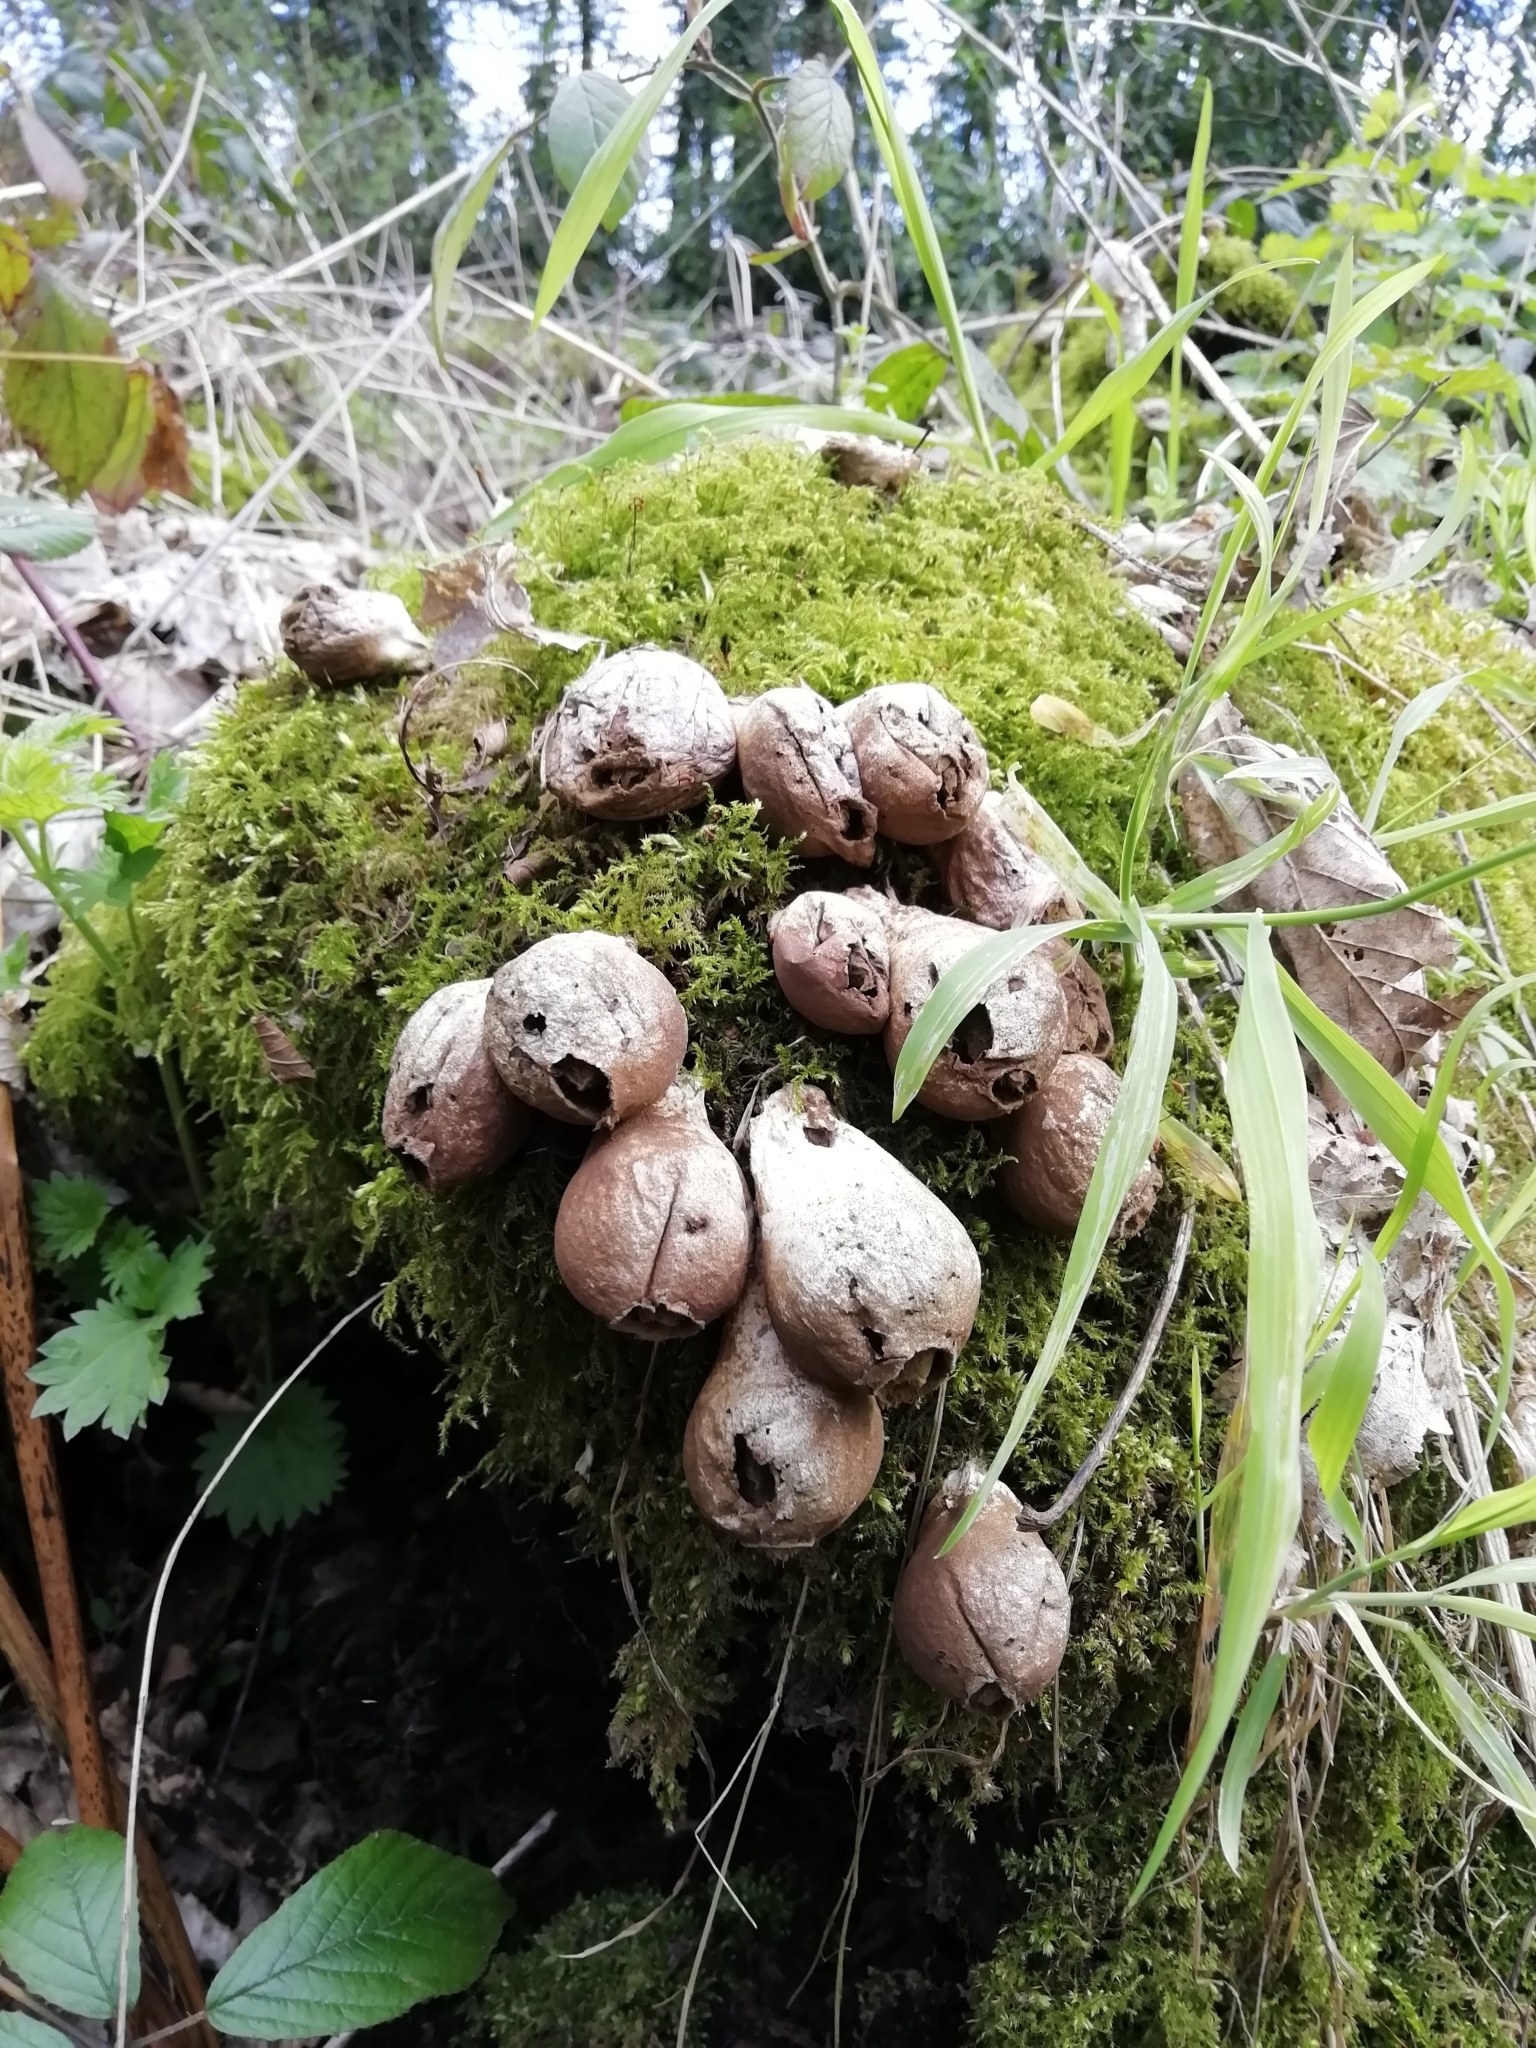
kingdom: Fungi
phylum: Basidiomycota
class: Agaricomycetes
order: Agaricales
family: Lycoperdaceae
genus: Apioperdon
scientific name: Apioperdon pyriforme
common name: Pear-shaped puffball
